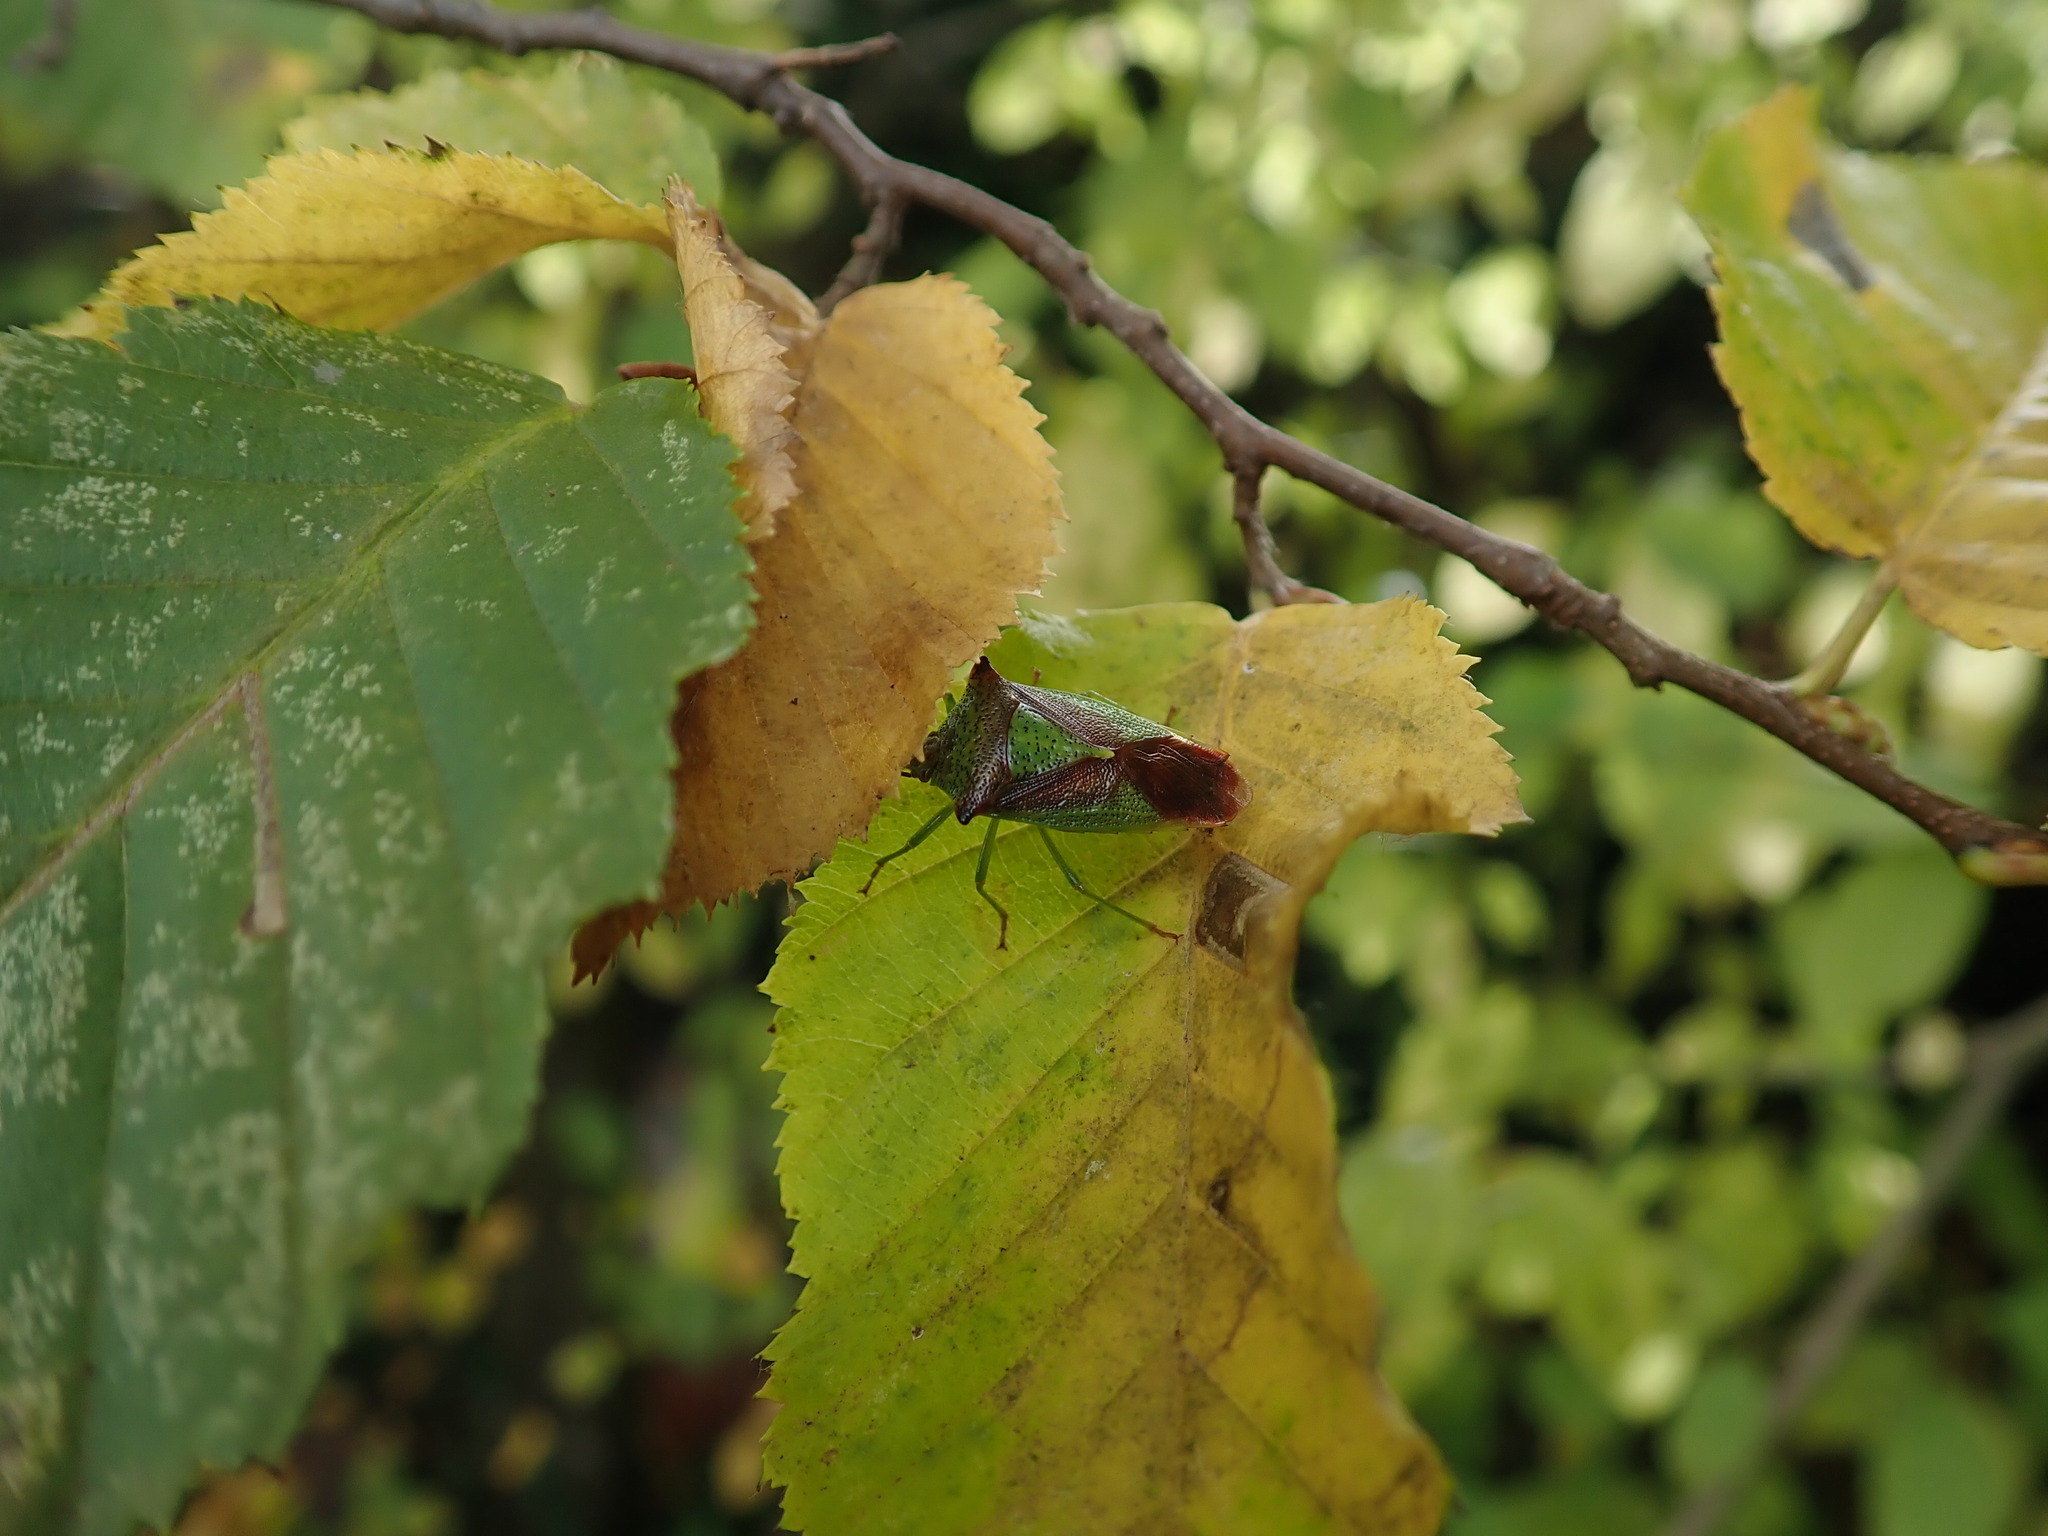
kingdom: Animalia
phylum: Arthropoda
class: Insecta
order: Hemiptera
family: Acanthosomatidae
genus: Acanthosoma
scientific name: Acanthosoma haemorrhoidale
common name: Hawthorn shieldbug
